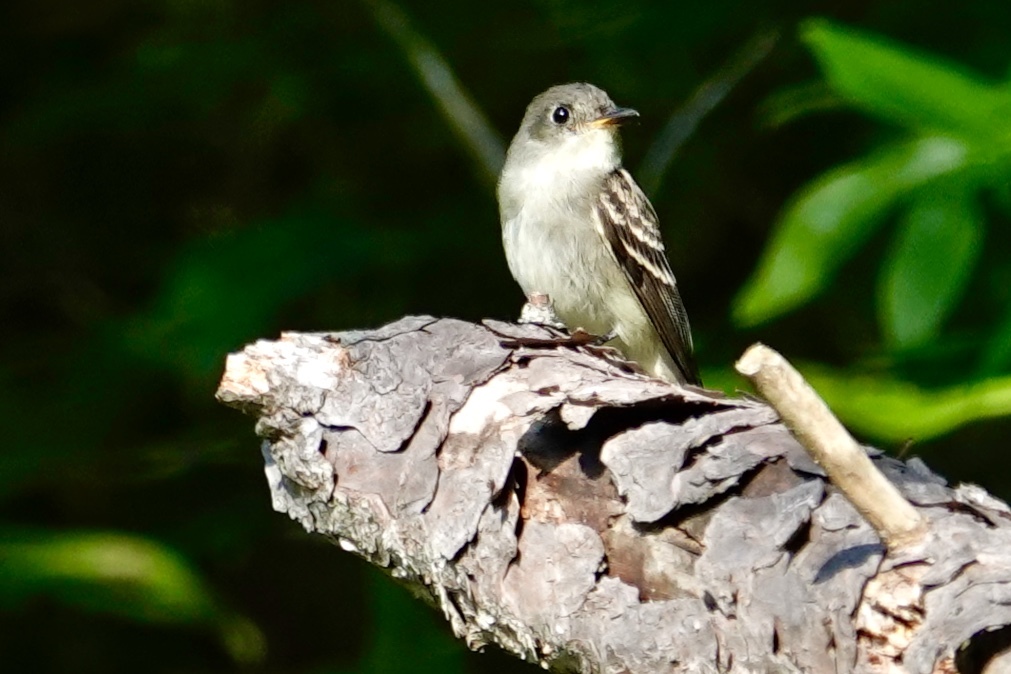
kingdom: Animalia
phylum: Chordata
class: Aves
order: Passeriformes
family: Tyrannidae
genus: Contopus
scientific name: Contopus virens
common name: Eastern wood-pewee
